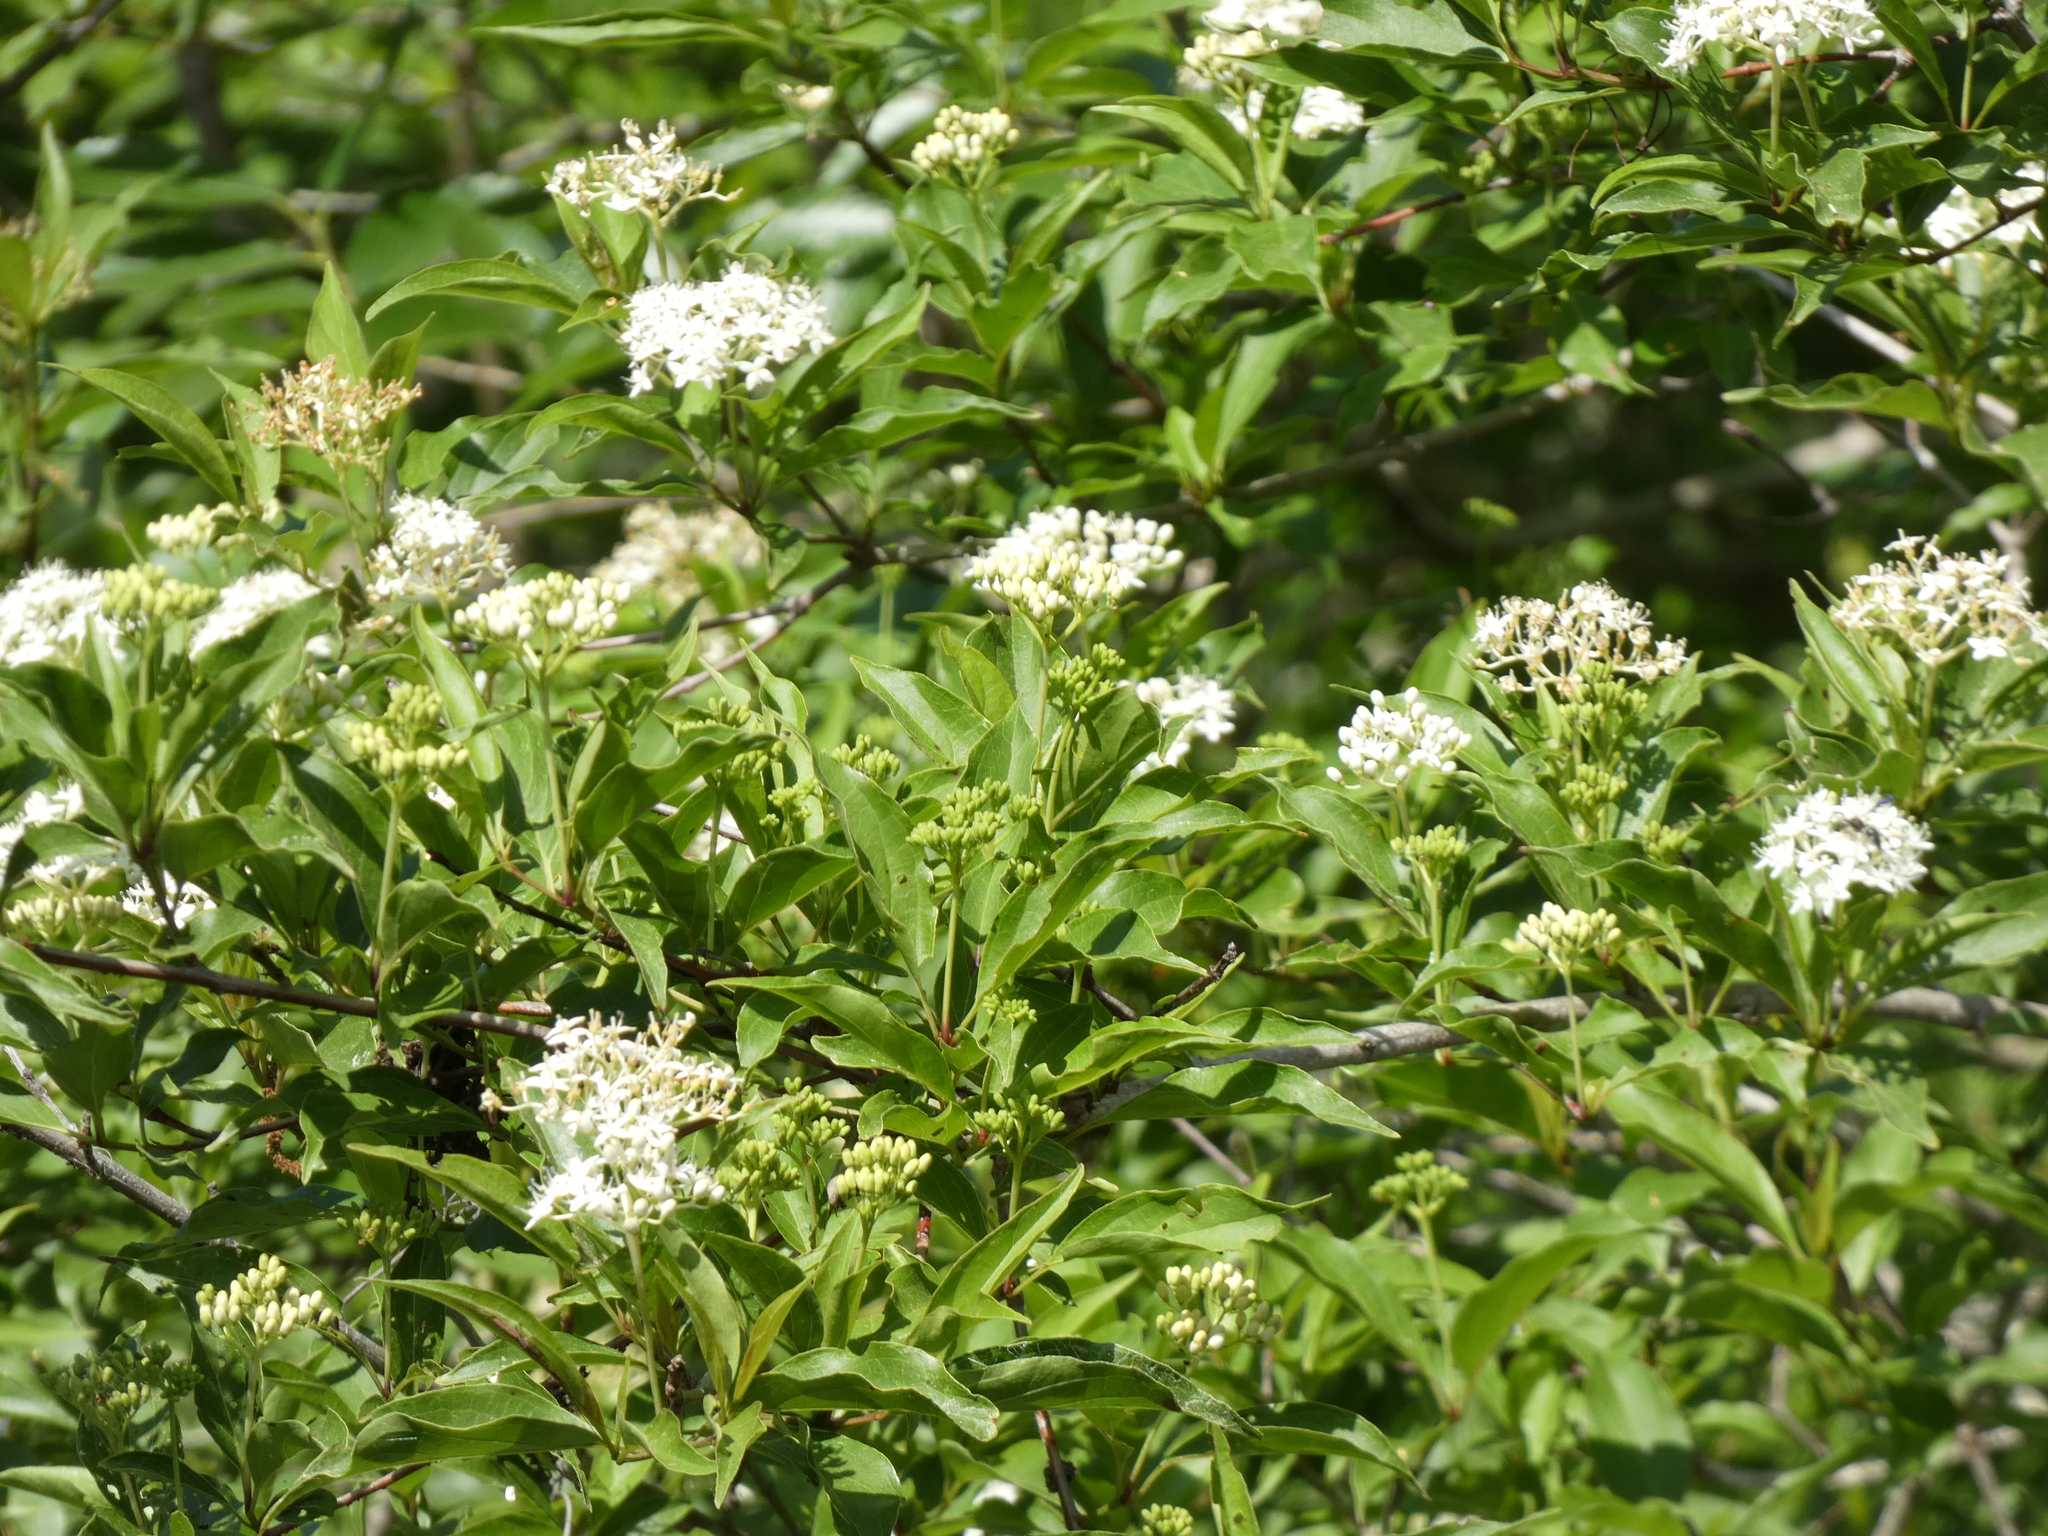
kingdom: Plantae
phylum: Tracheophyta
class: Magnoliopsida
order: Cornales
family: Cornaceae
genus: Cornus
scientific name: Cornus foemina
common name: Swamp dogwood
